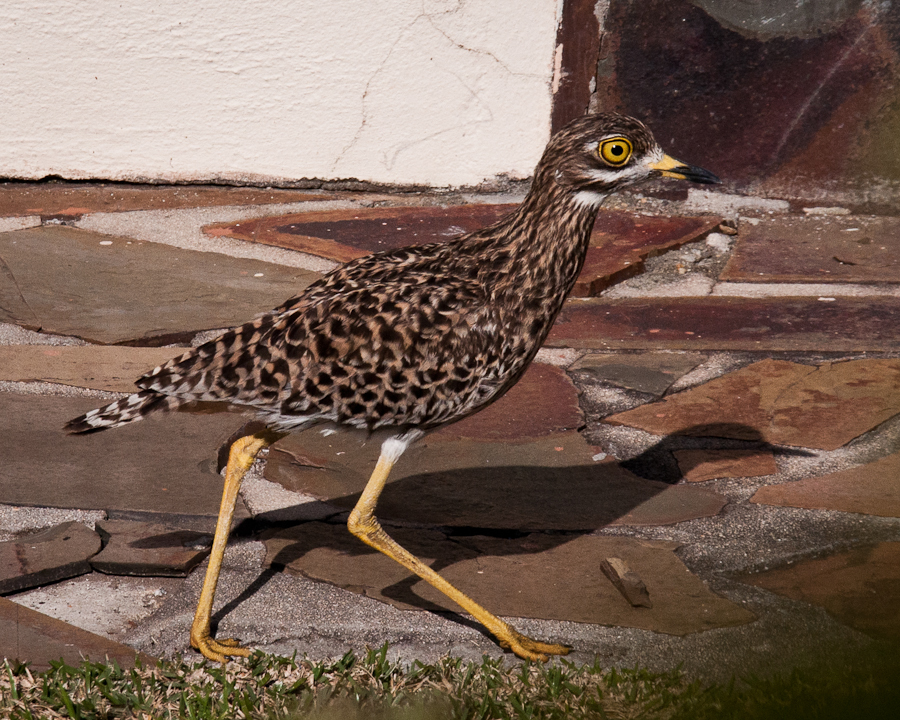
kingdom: Animalia
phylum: Chordata
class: Aves
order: Charadriiformes
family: Burhinidae
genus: Burhinus
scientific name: Burhinus capensis
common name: Spotted thick-knee
